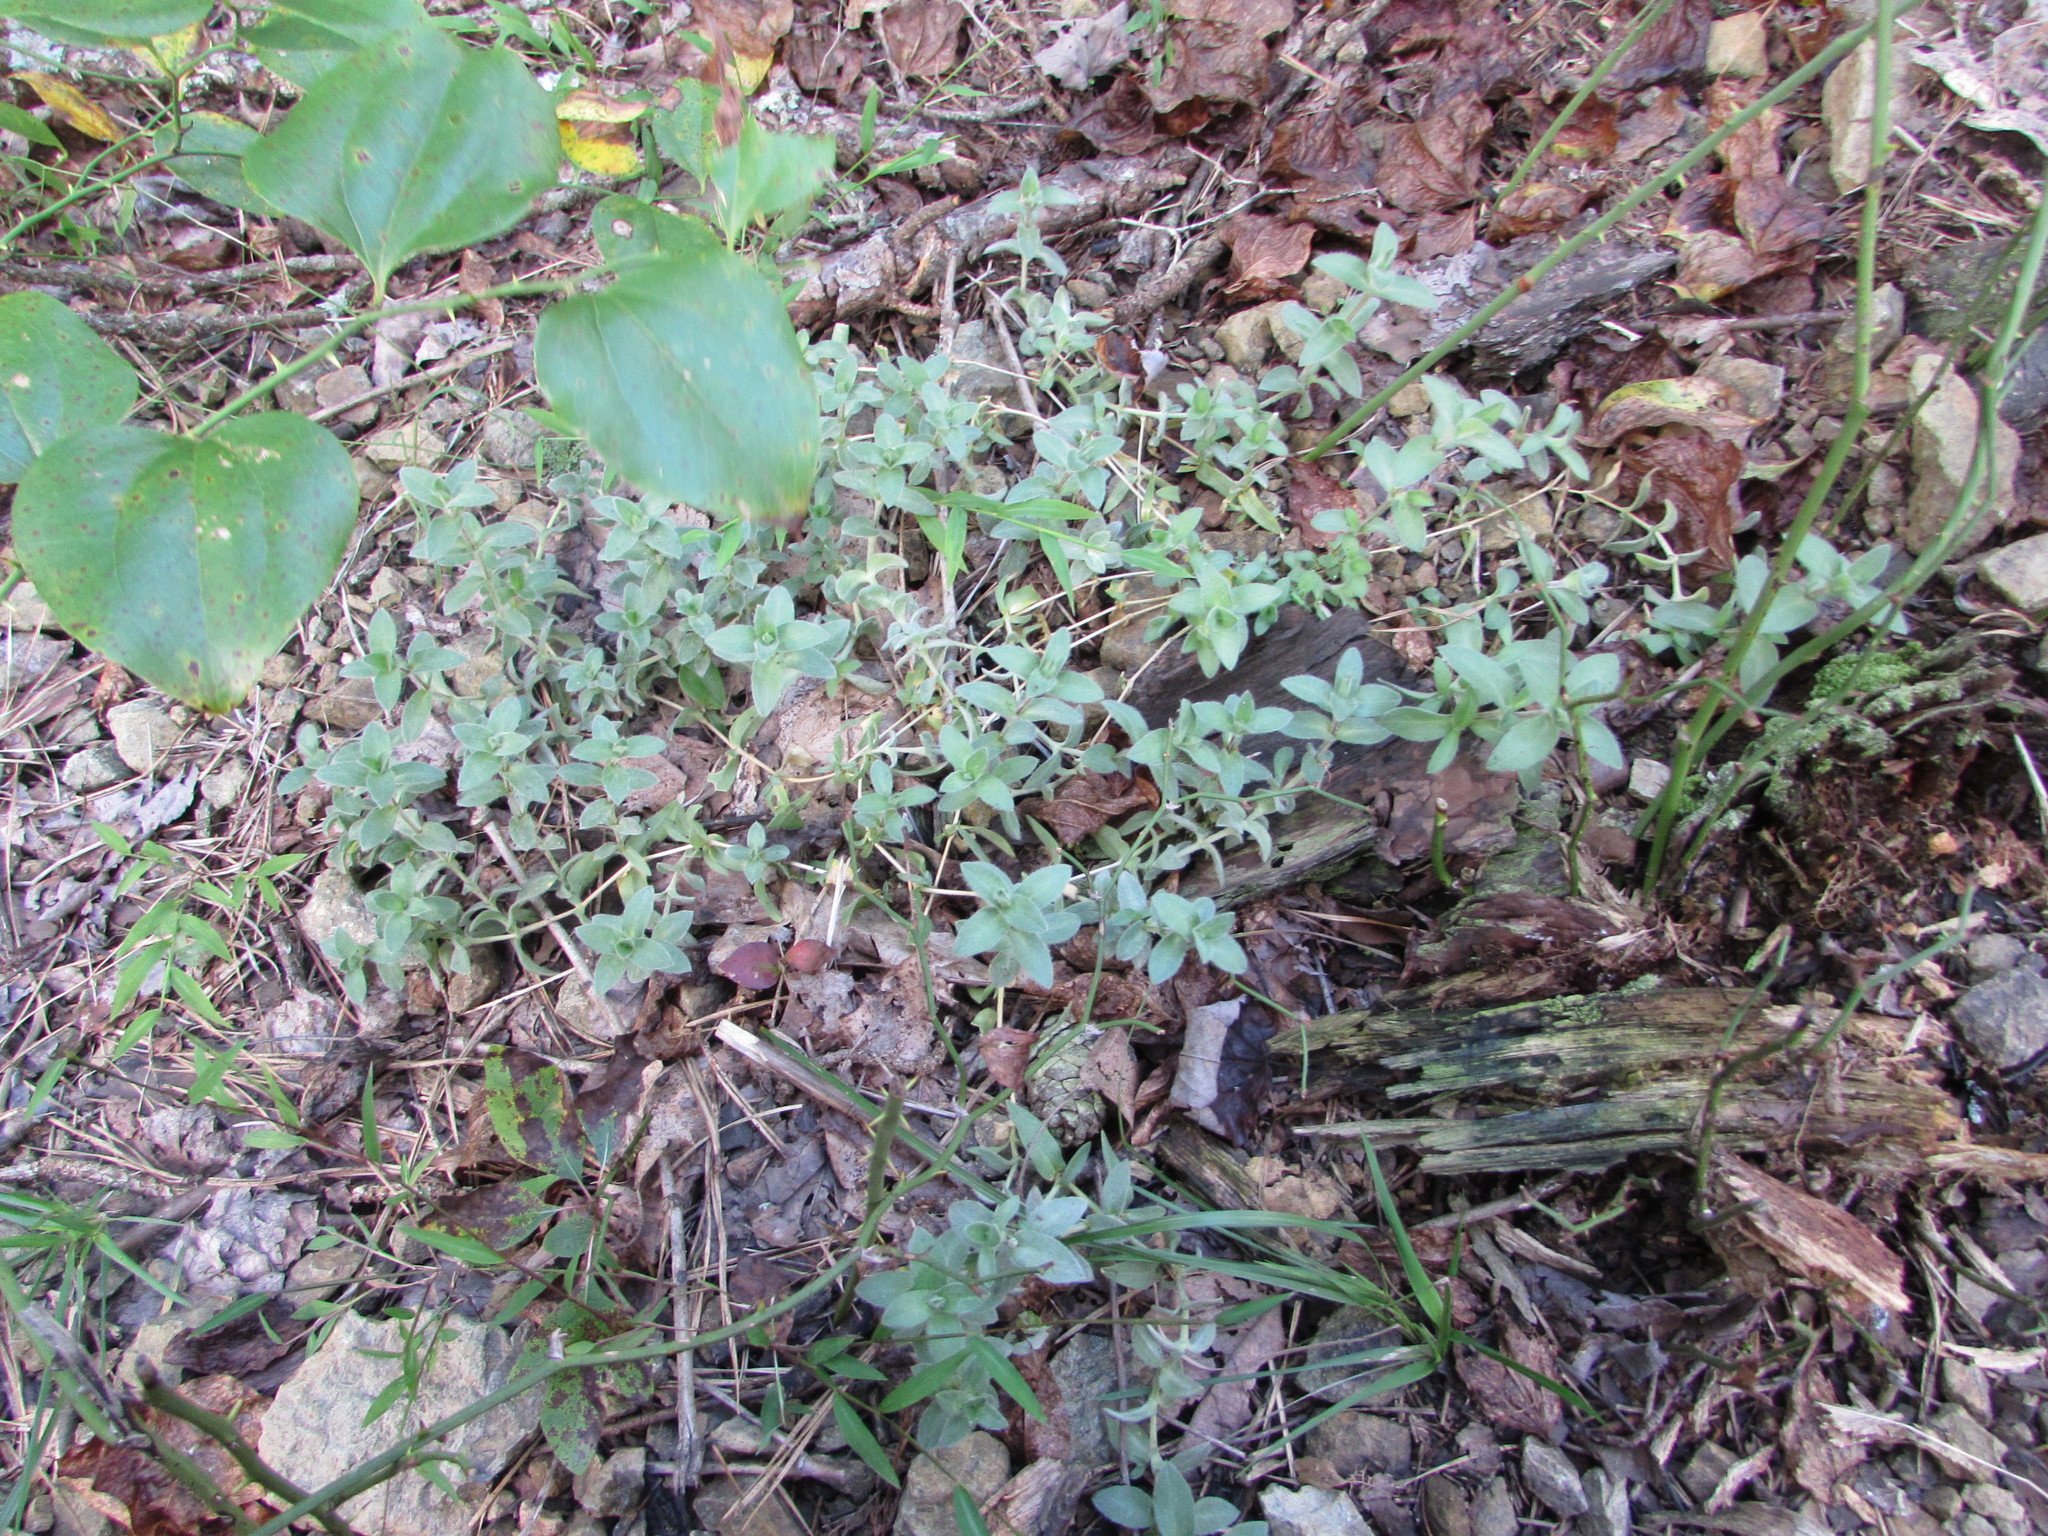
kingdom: Plantae
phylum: Tracheophyta
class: Magnoliopsida
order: Caryophyllales
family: Caryophyllaceae
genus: Cerastium
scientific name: Cerastium velutinum
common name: Barren chickweed
